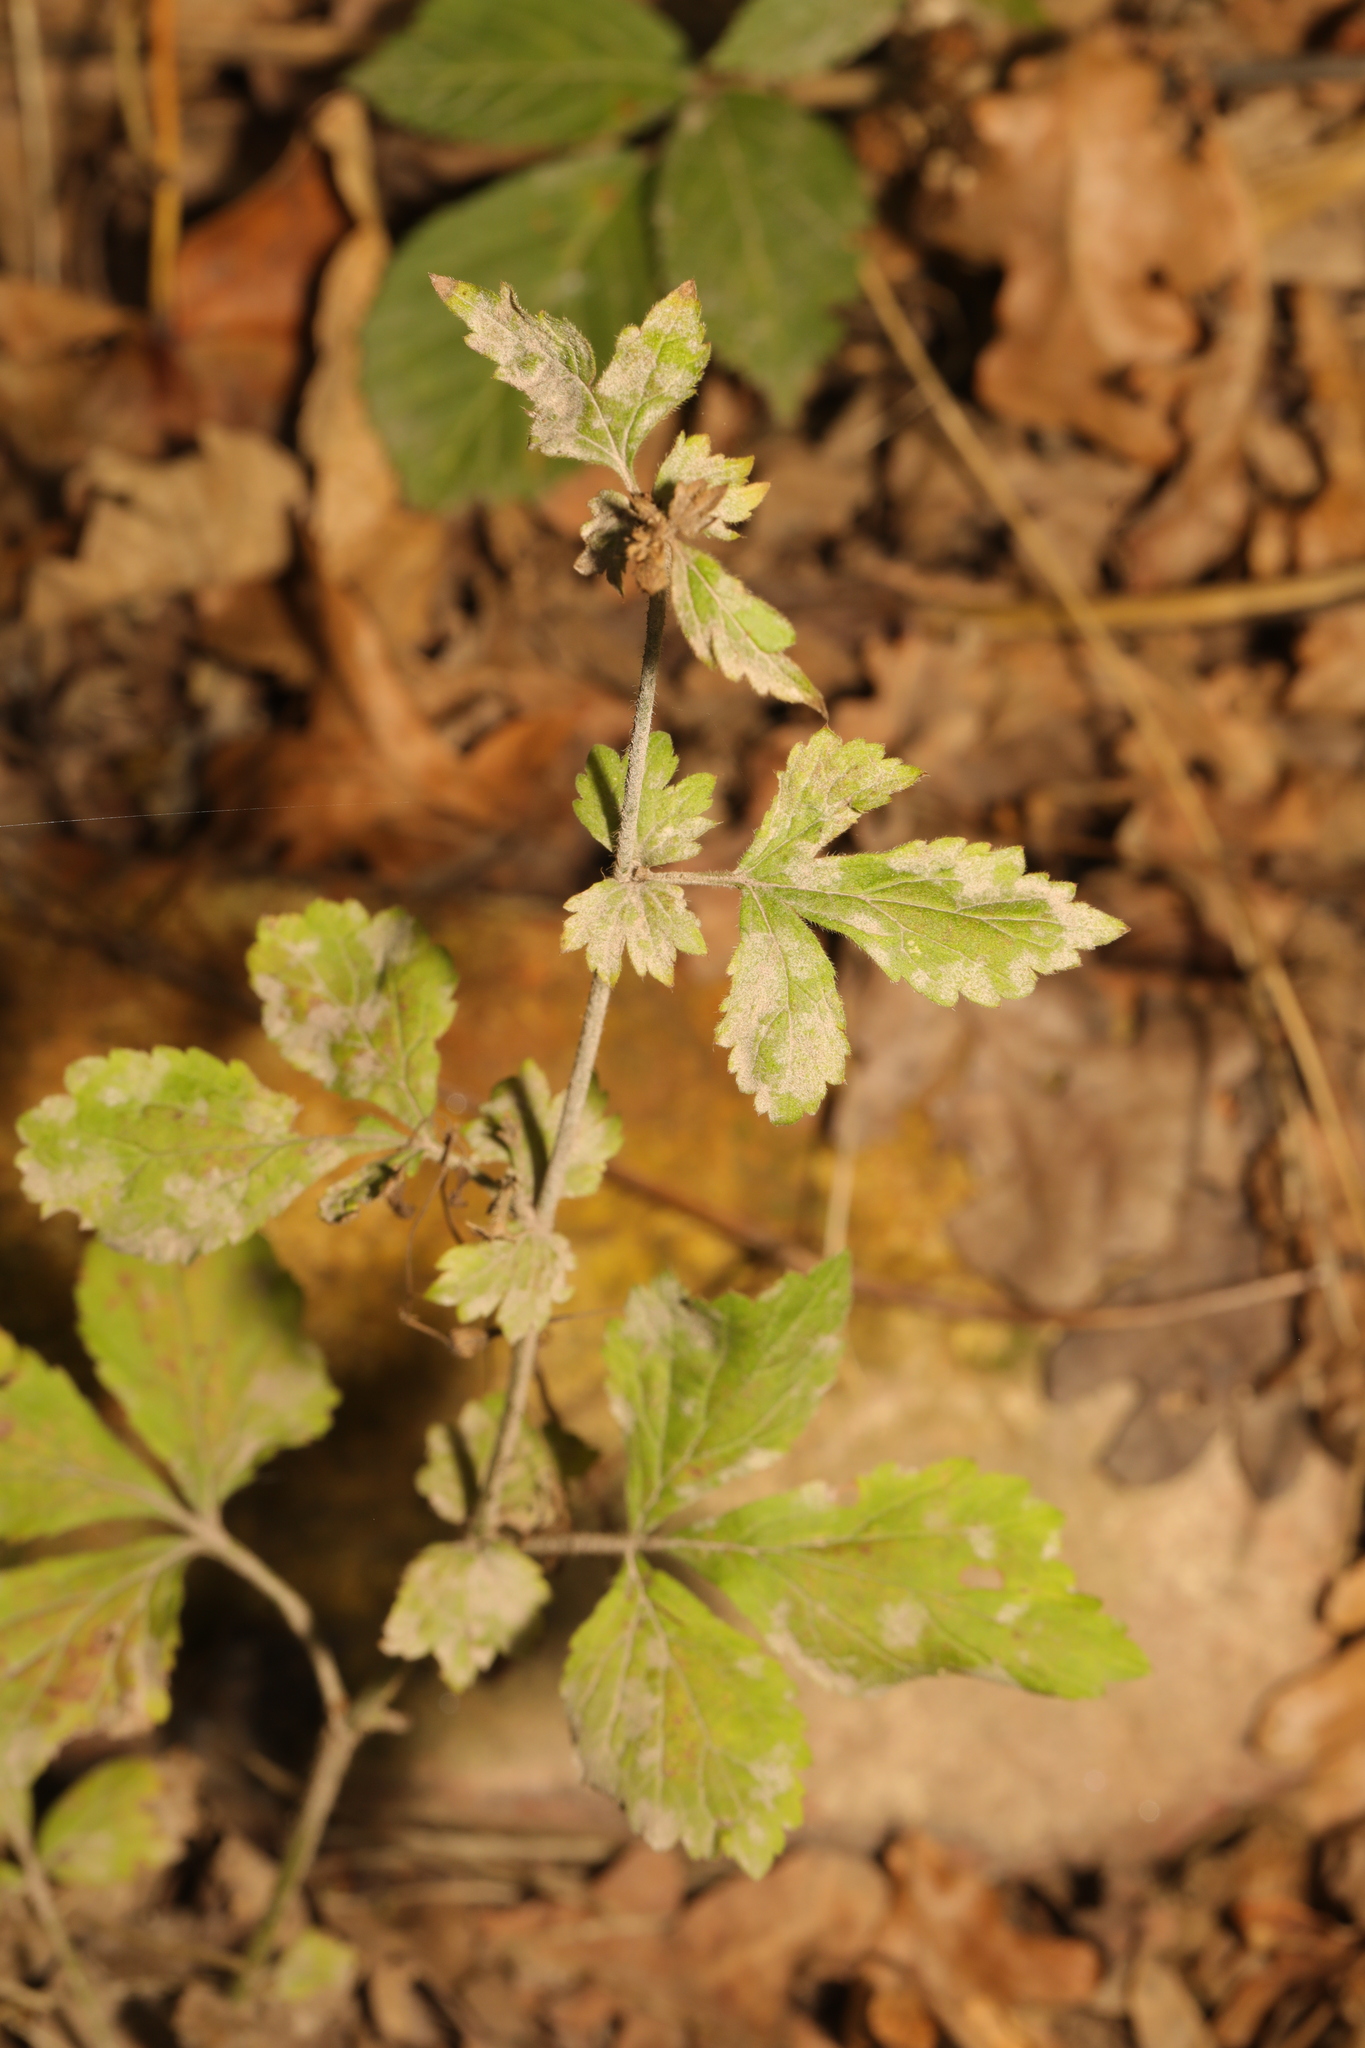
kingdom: Fungi
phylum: Ascomycota
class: Leotiomycetes
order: Helotiales
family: Erysiphaceae
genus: Podosphaera
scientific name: Podosphaera aphanis
